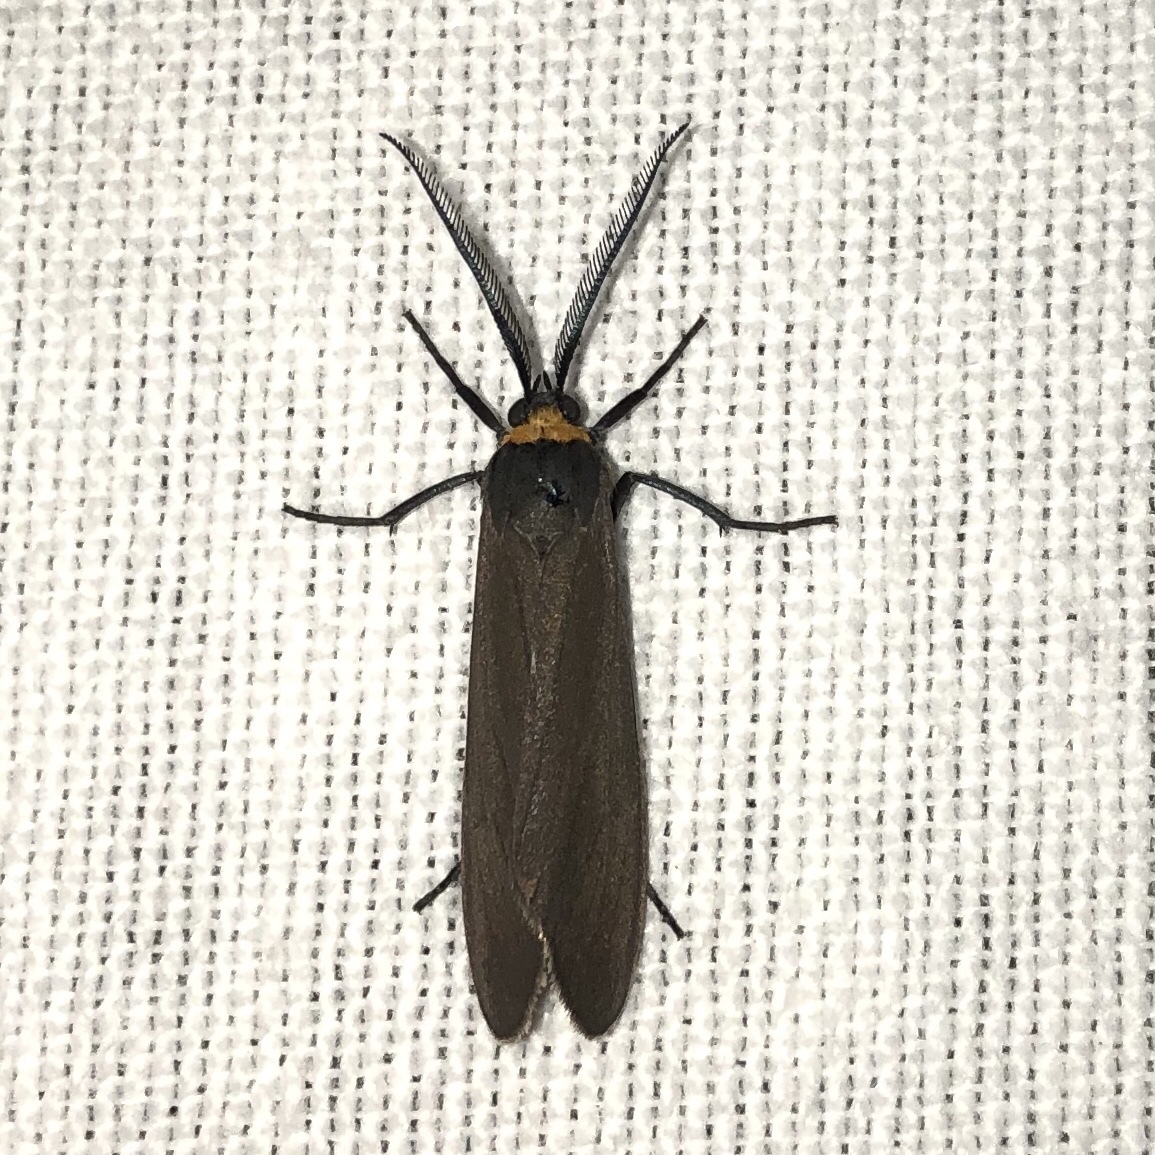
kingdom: Animalia
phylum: Arthropoda
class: Insecta
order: Lepidoptera
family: Erebidae
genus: Cisseps
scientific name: Cisseps fulvicollis
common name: Yellow-collared scape moth
